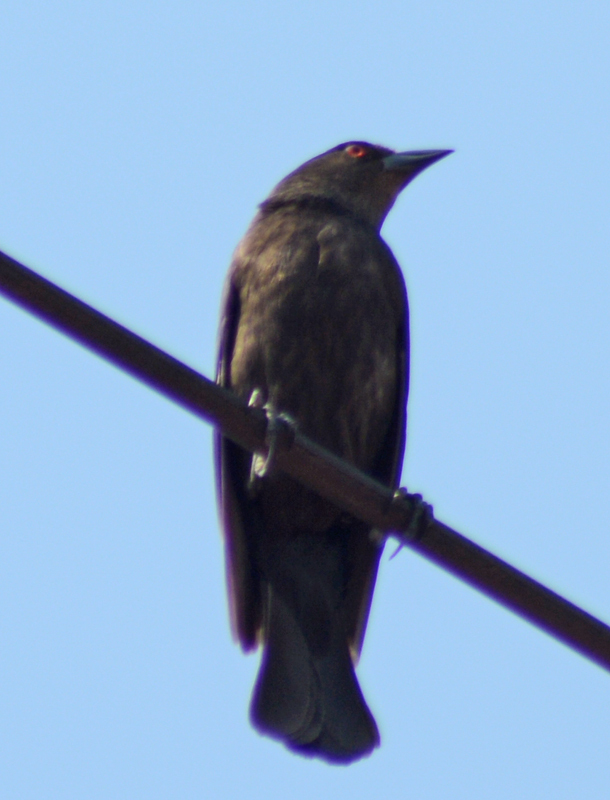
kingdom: Animalia
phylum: Chordata
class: Aves
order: Passeriformes
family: Icteridae
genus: Molothrus
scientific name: Molothrus aeneus
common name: Bronzed cowbird
